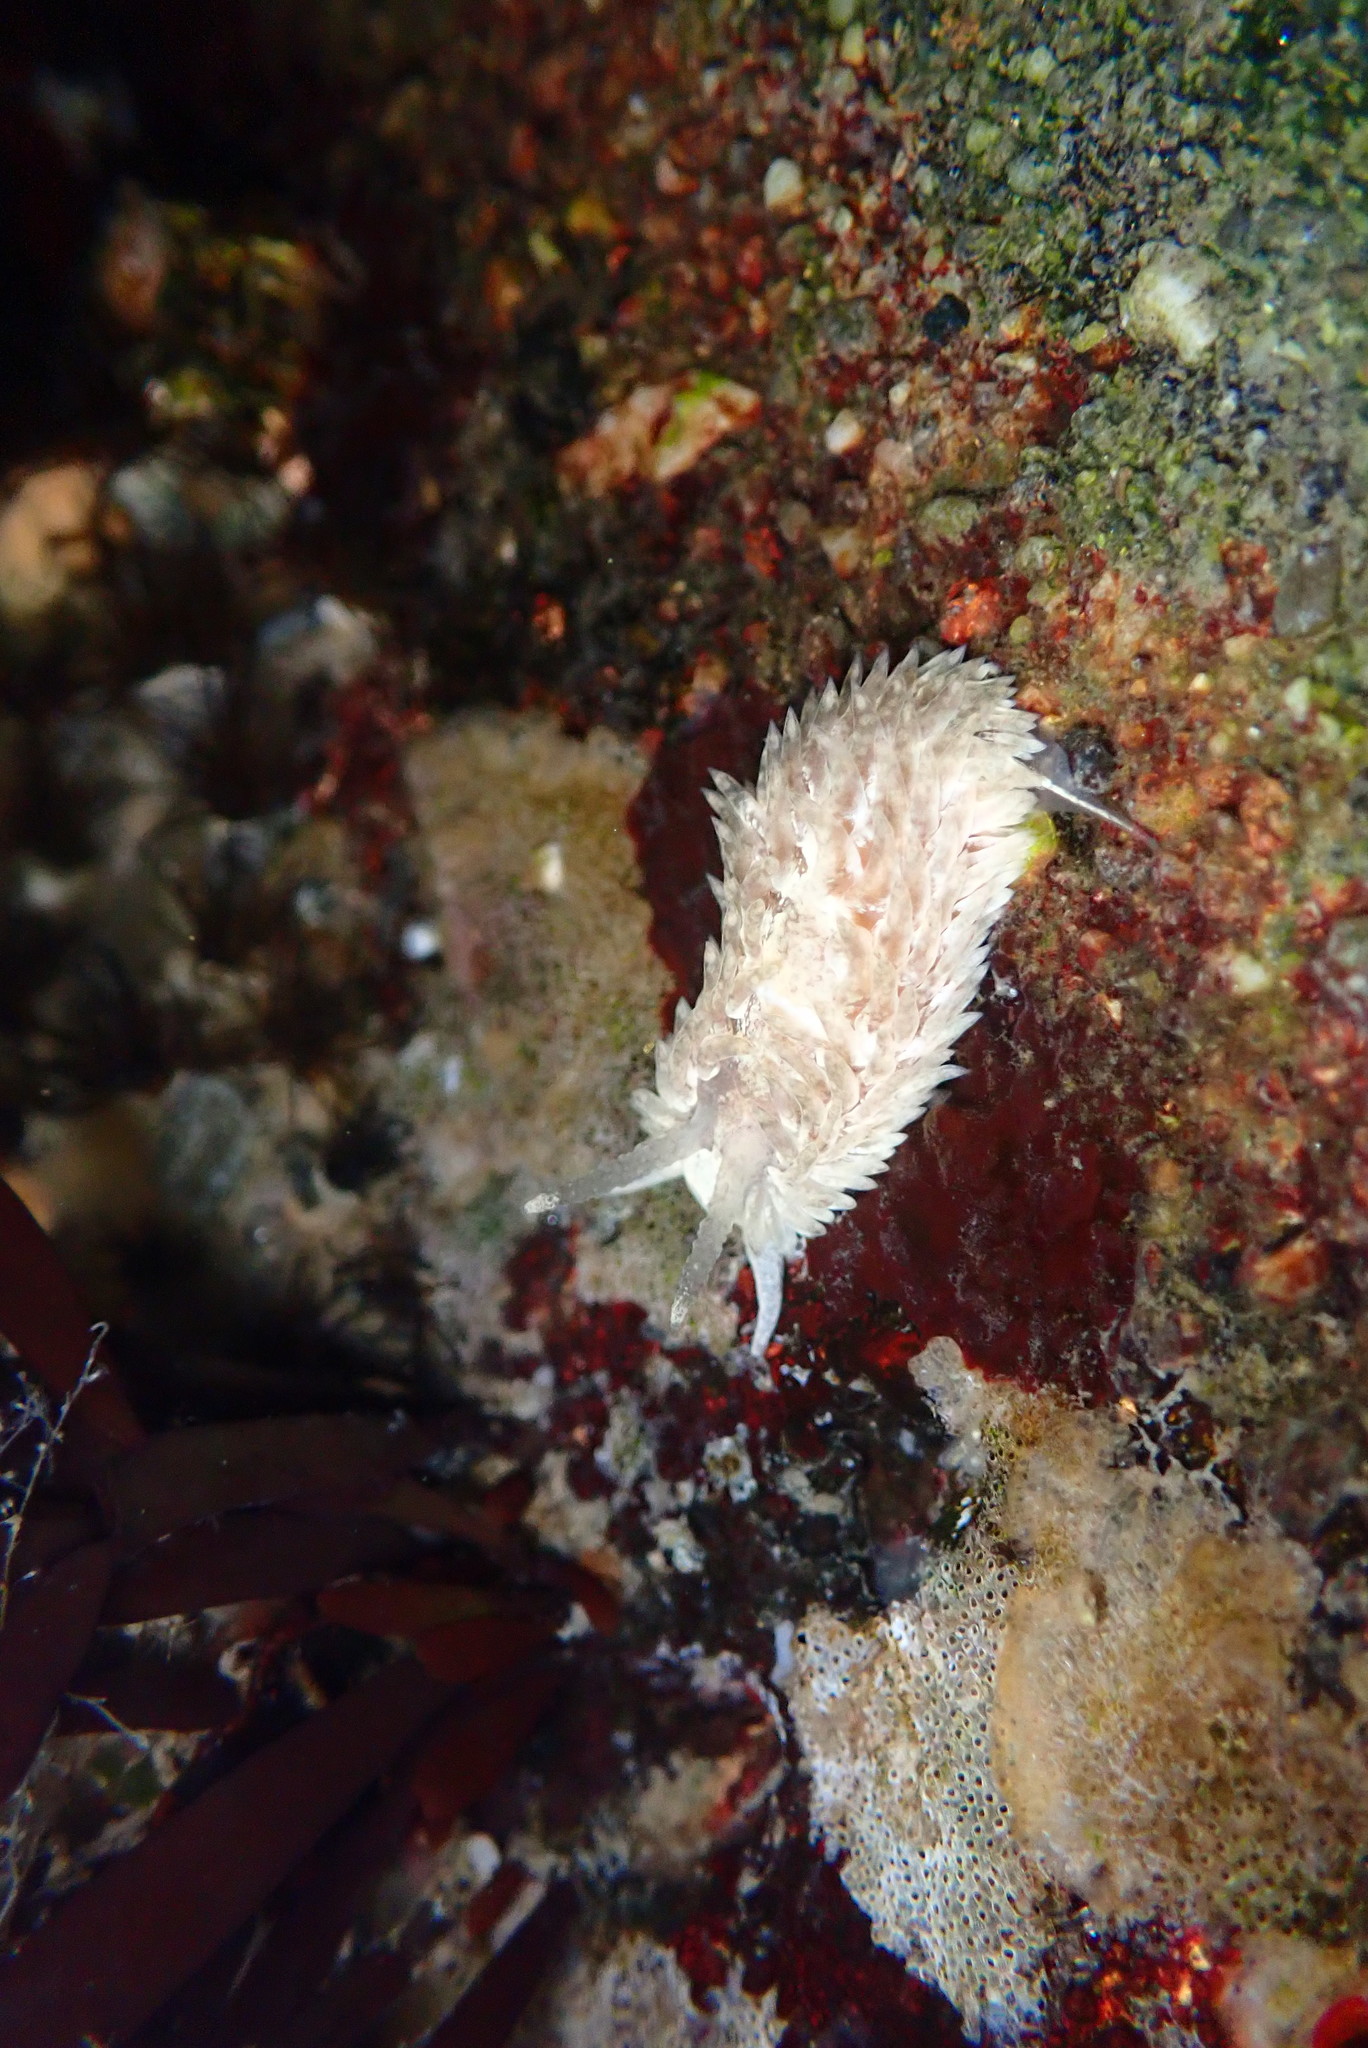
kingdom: Animalia
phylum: Mollusca
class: Gastropoda
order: Nudibranchia
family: Aeolidiidae
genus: Aeolidia
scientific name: Aeolidia loui
